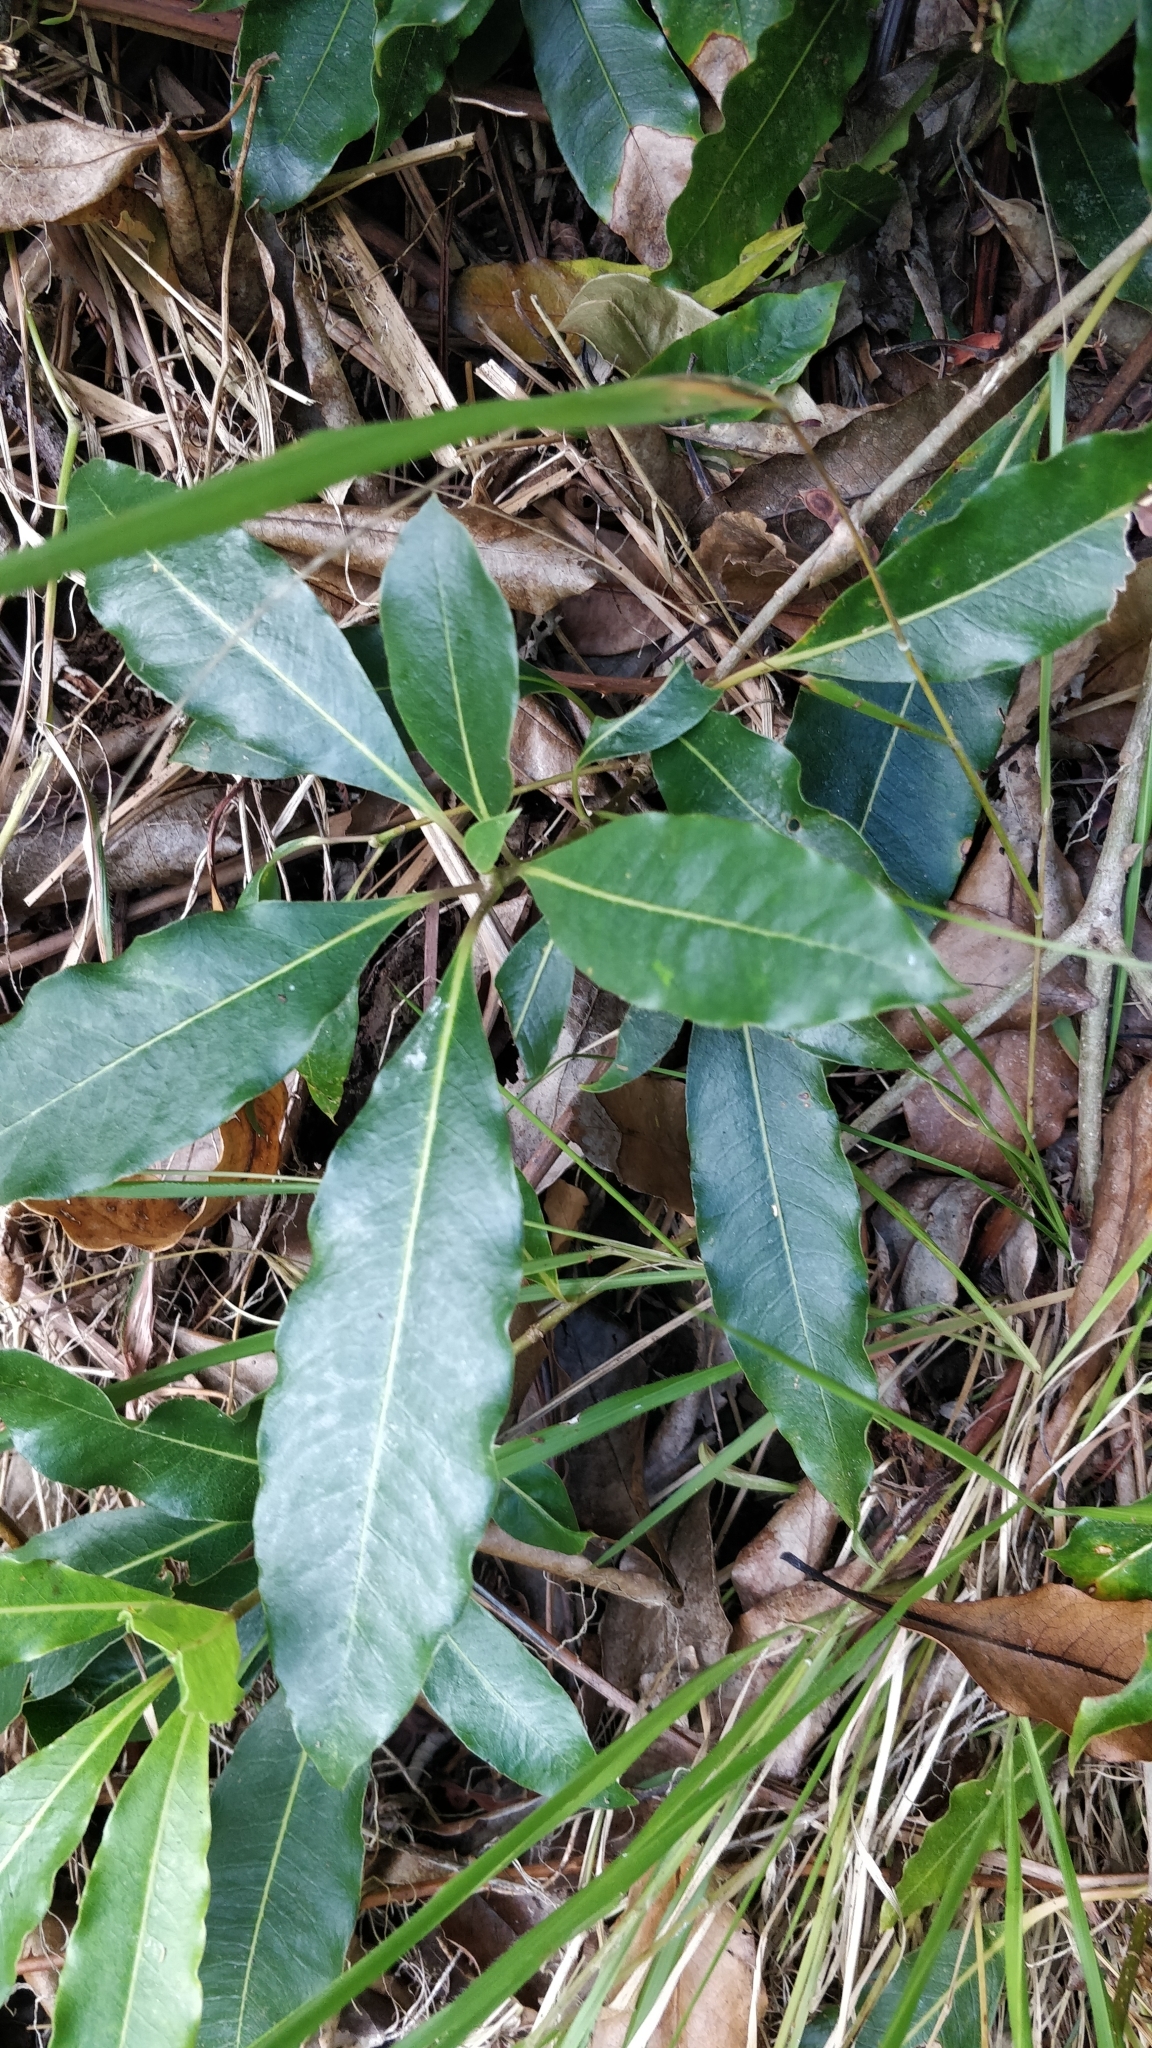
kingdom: Plantae
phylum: Tracheophyta
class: Magnoliopsida
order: Apiales
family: Pittosporaceae
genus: Pittosporum
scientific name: Pittosporum undulatum
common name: Australian cheesewood
